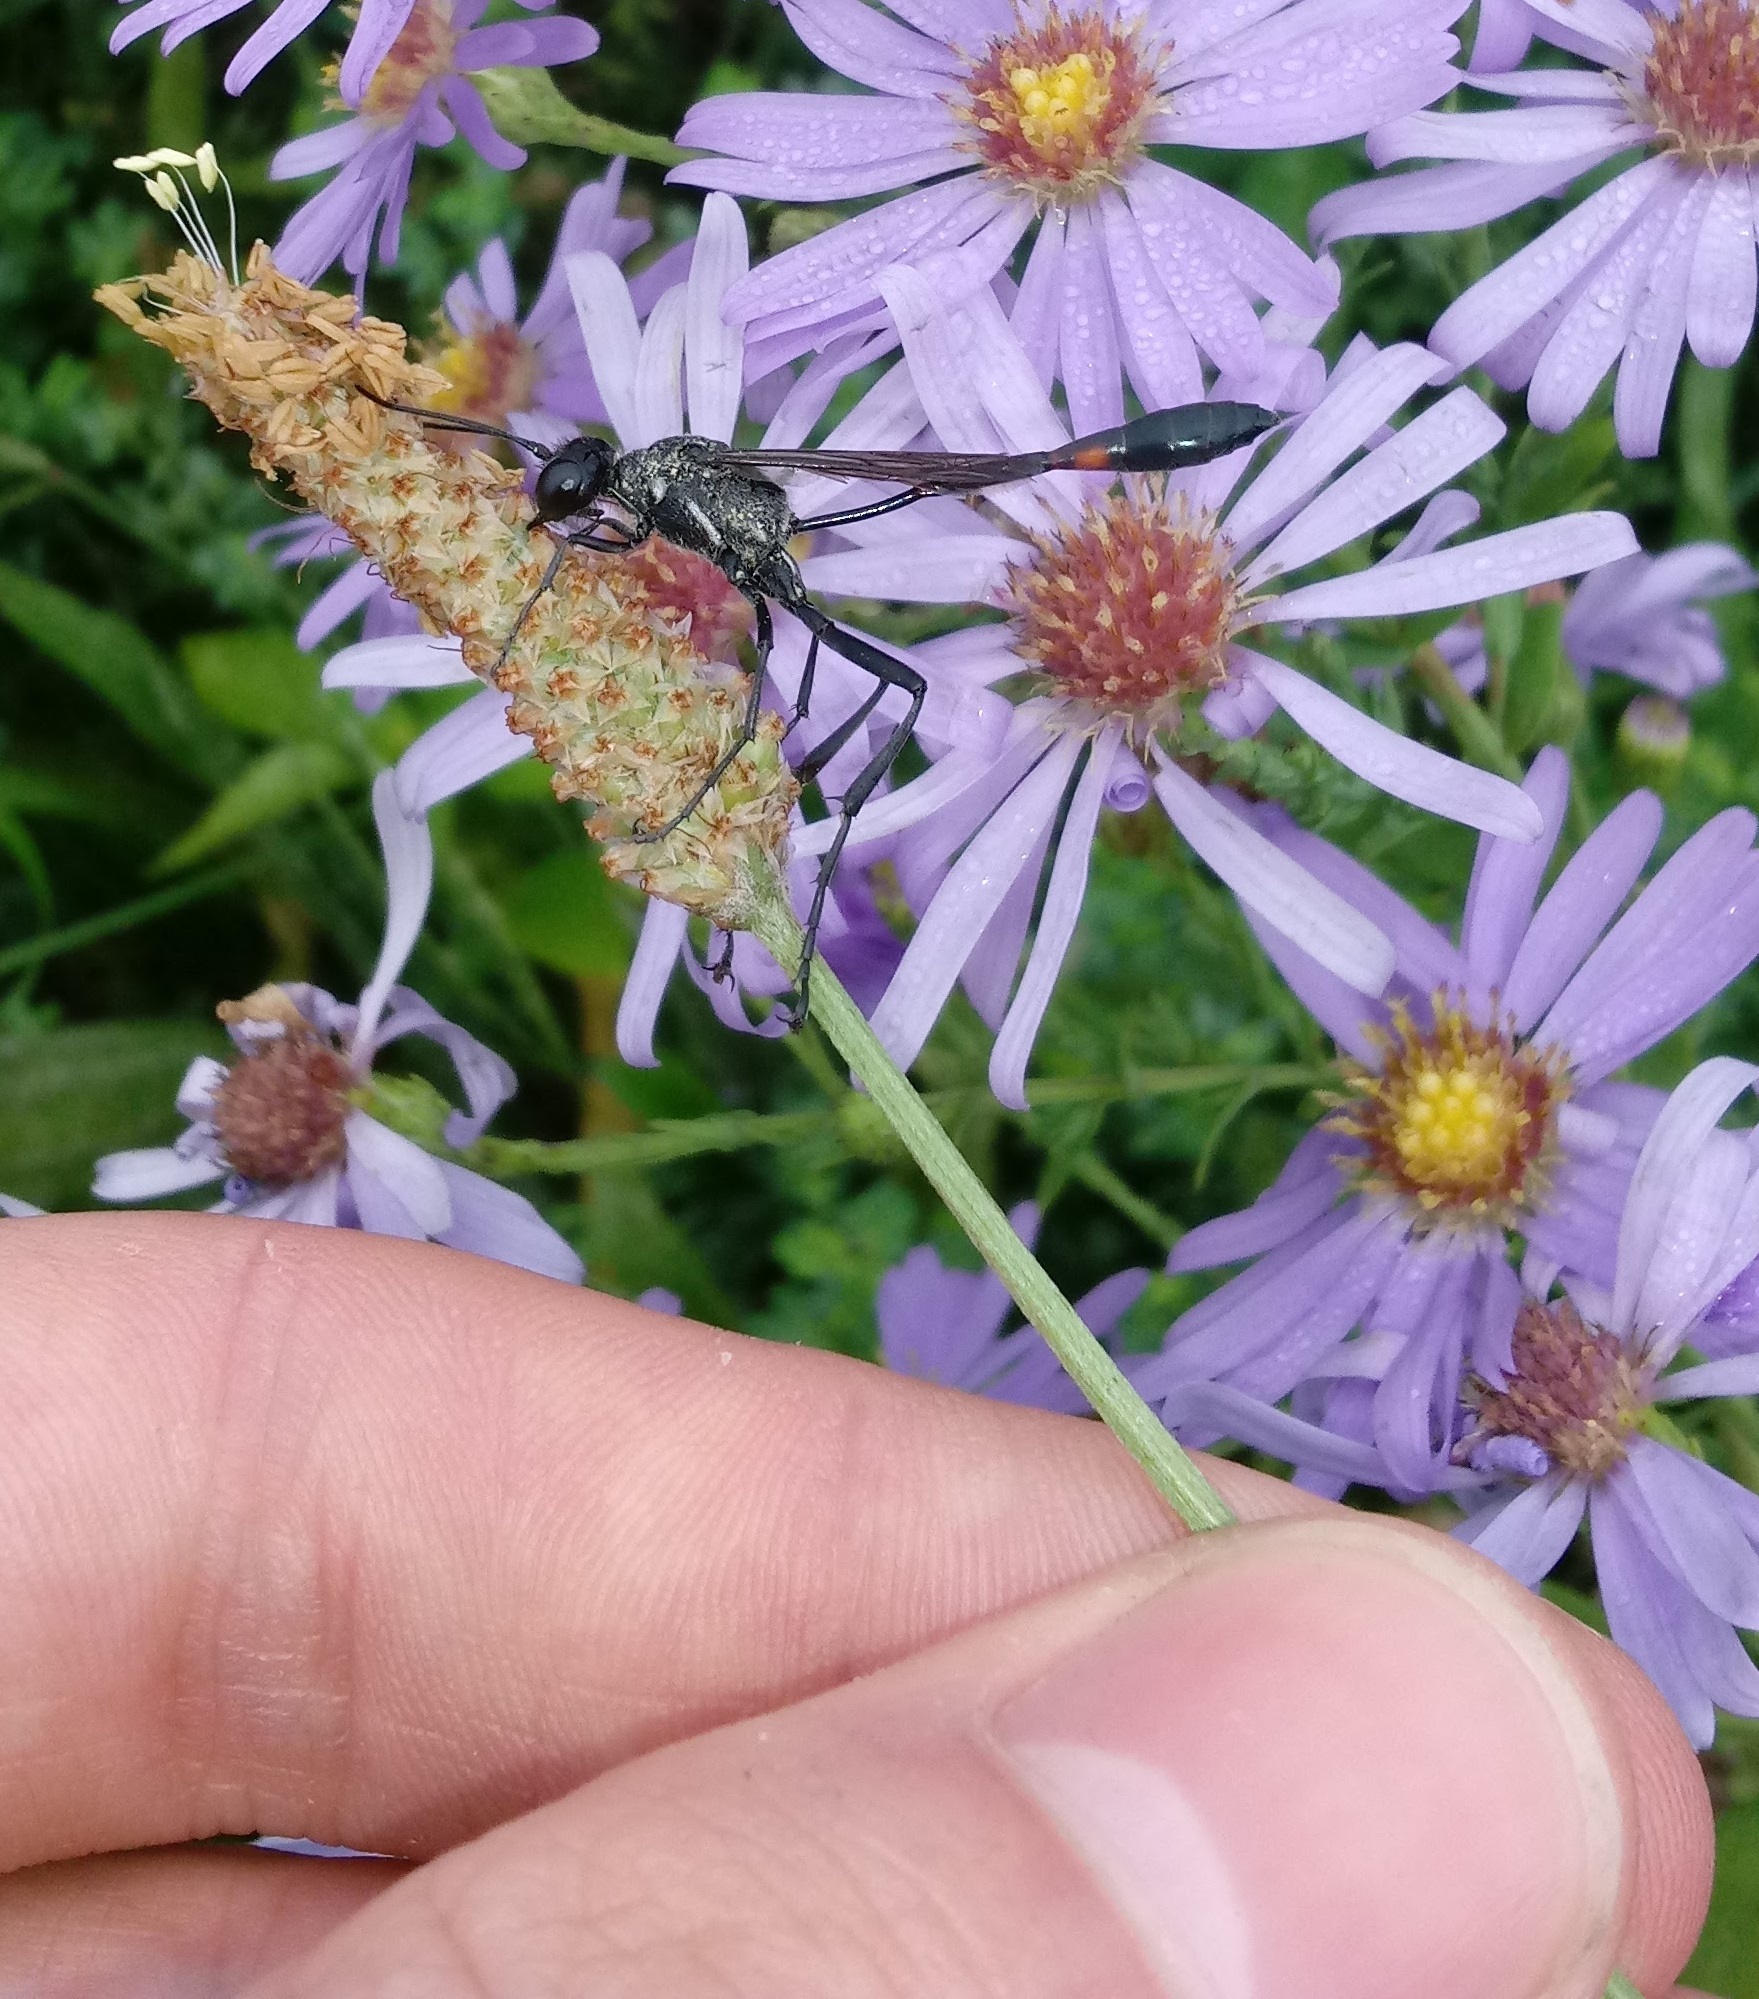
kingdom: Plantae
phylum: Tracheophyta
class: Magnoliopsida
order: Lamiales
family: Plantaginaceae
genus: Plantago
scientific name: Plantago lanceolata
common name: Ribwort plantain
